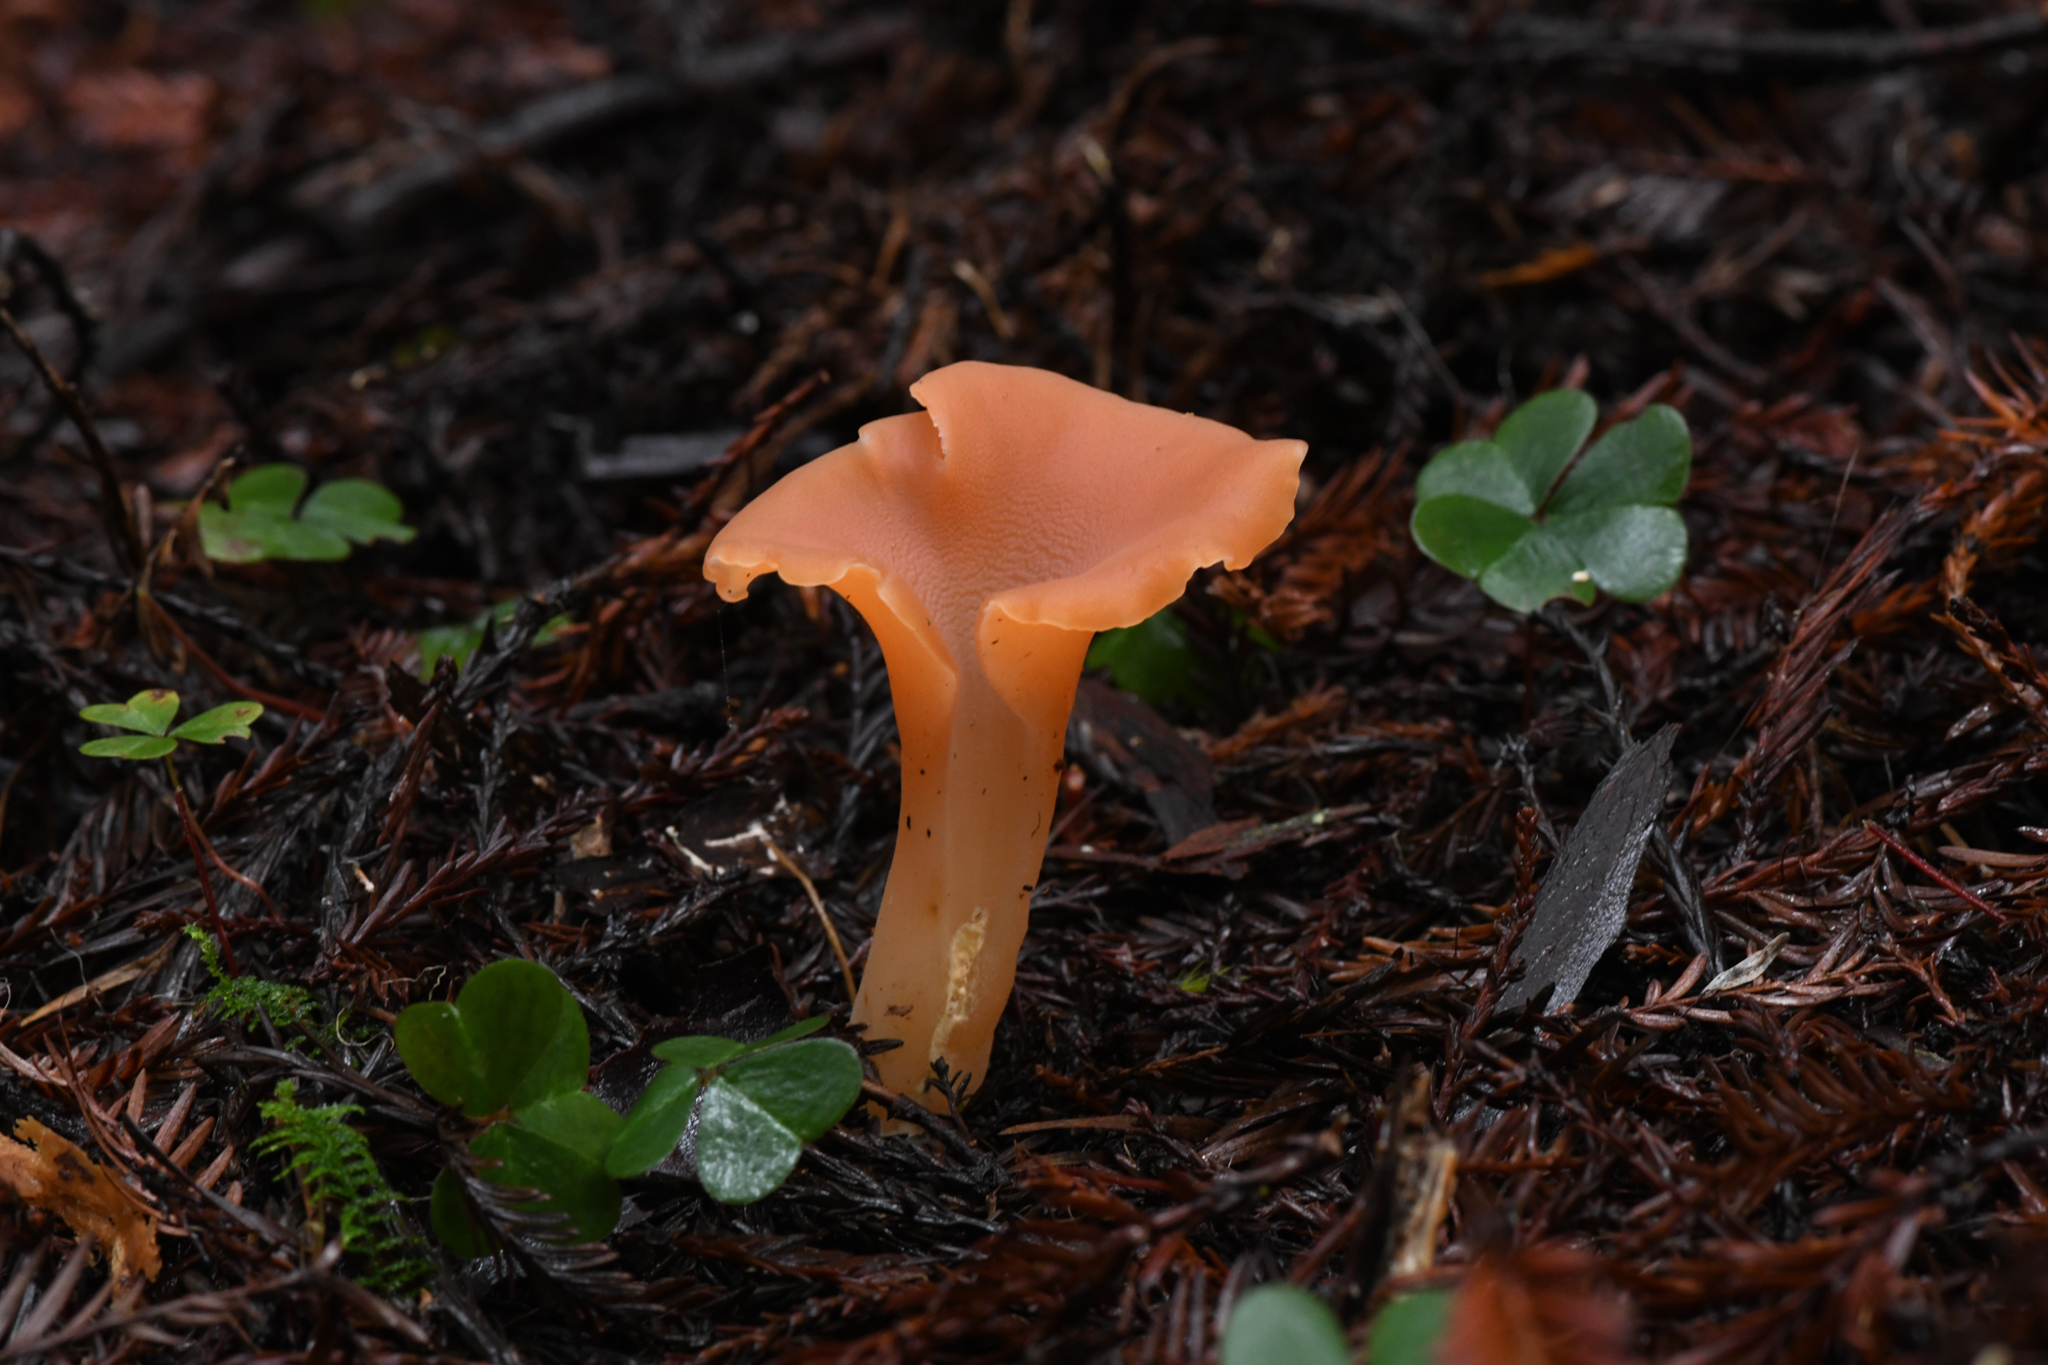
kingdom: Fungi
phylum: Basidiomycota
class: Agaricomycetes
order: Auriculariales
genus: Guepinia
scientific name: Guepinia helvelloides
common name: Salmon salad
